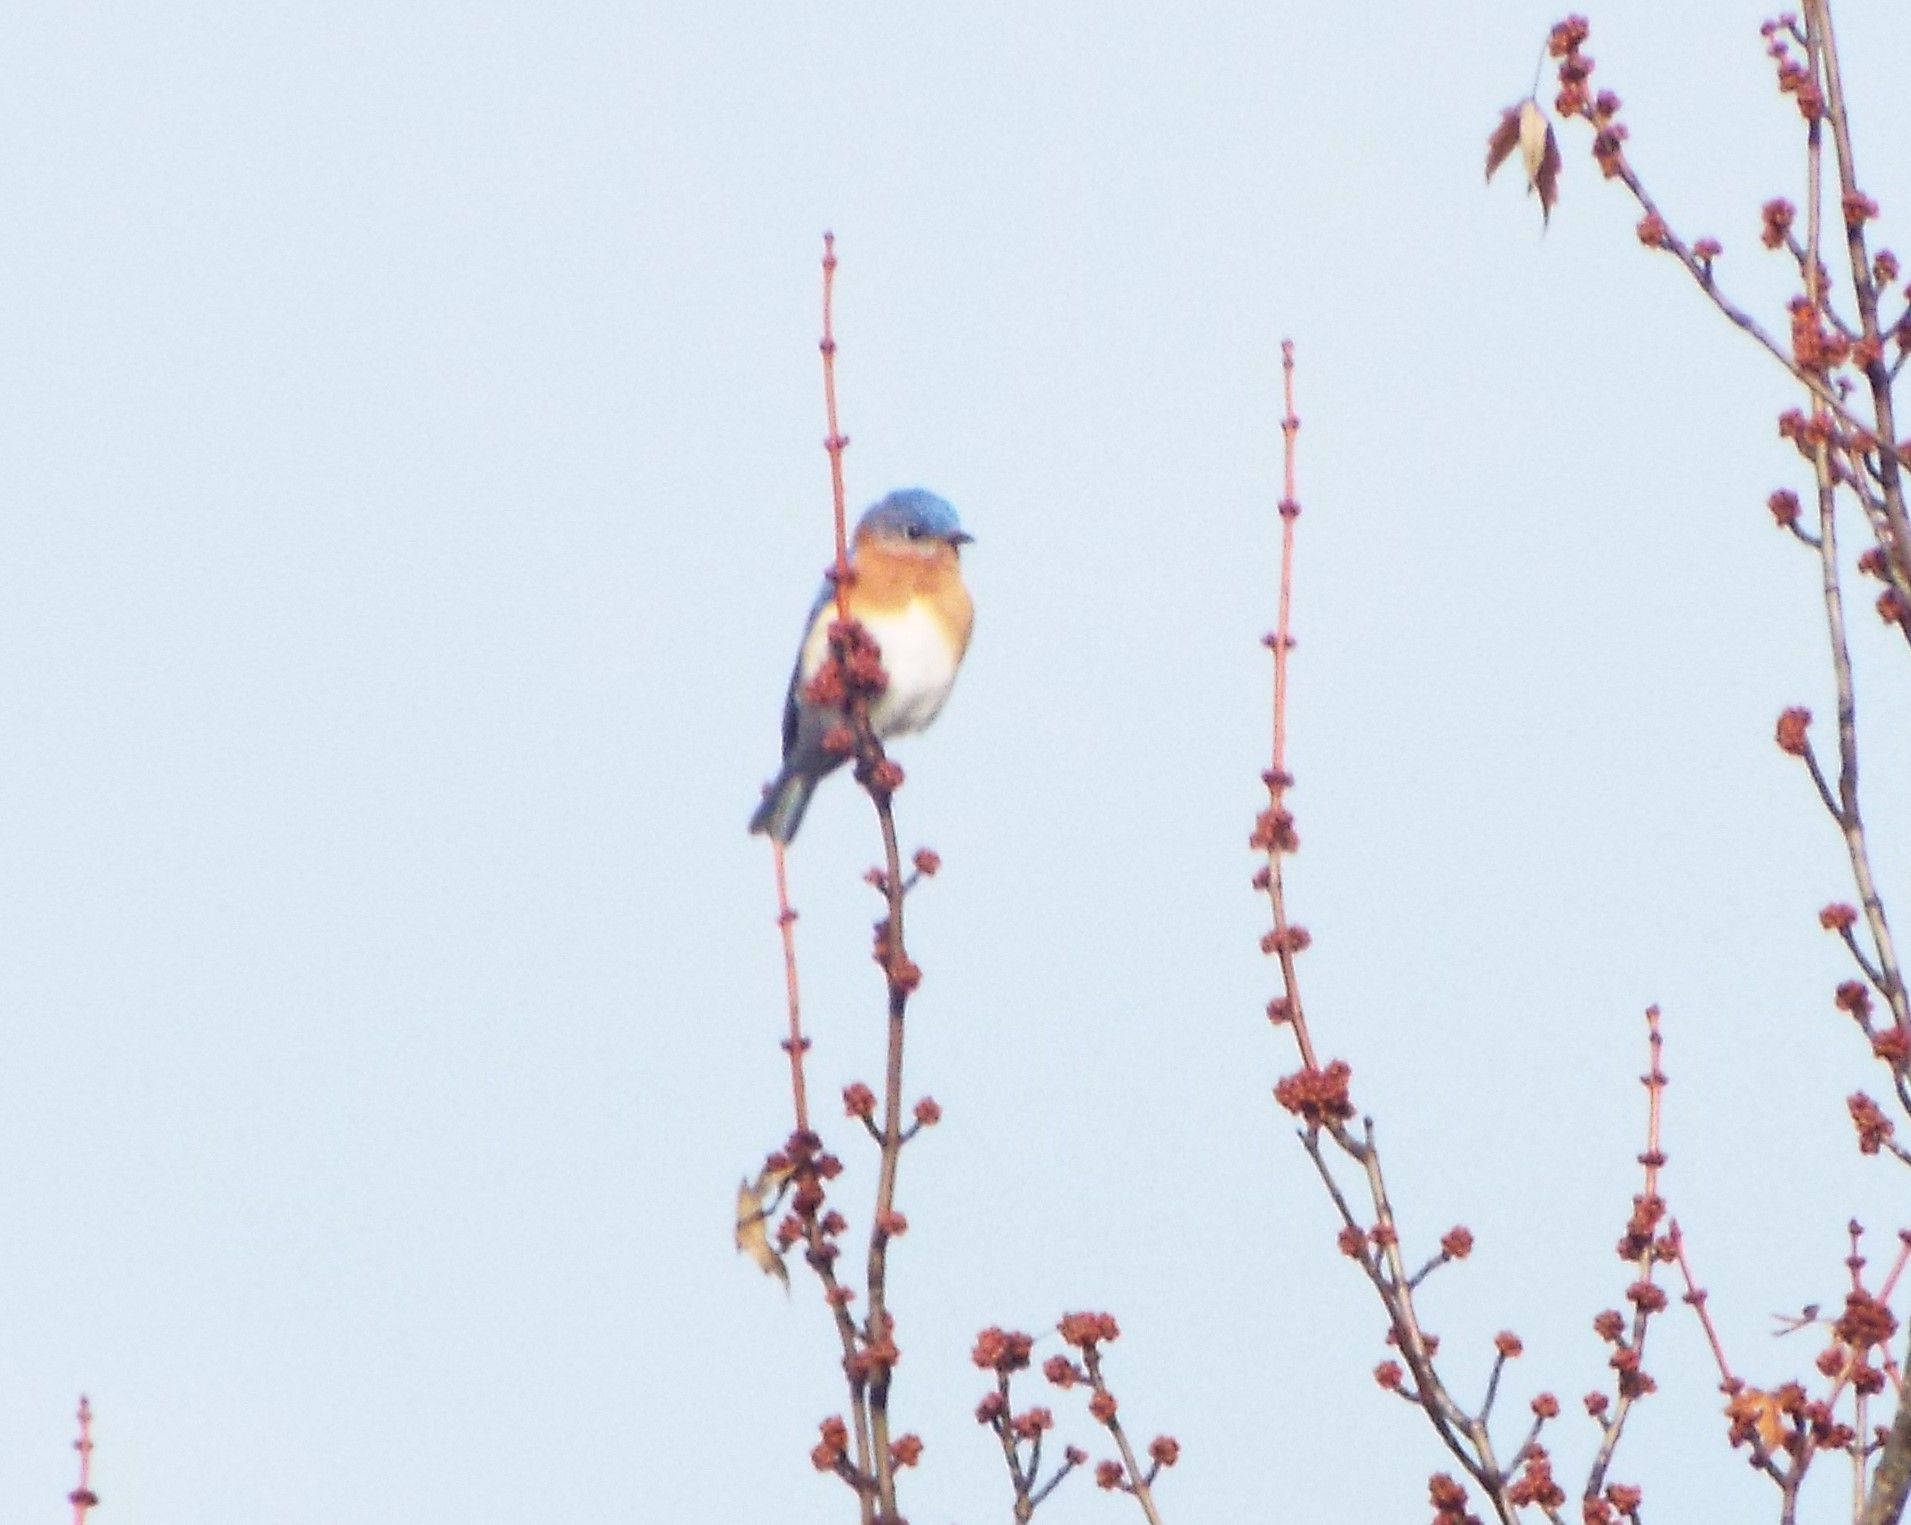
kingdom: Animalia
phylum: Chordata
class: Aves
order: Passeriformes
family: Turdidae
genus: Sialia
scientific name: Sialia sialis
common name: Eastern bluebird
